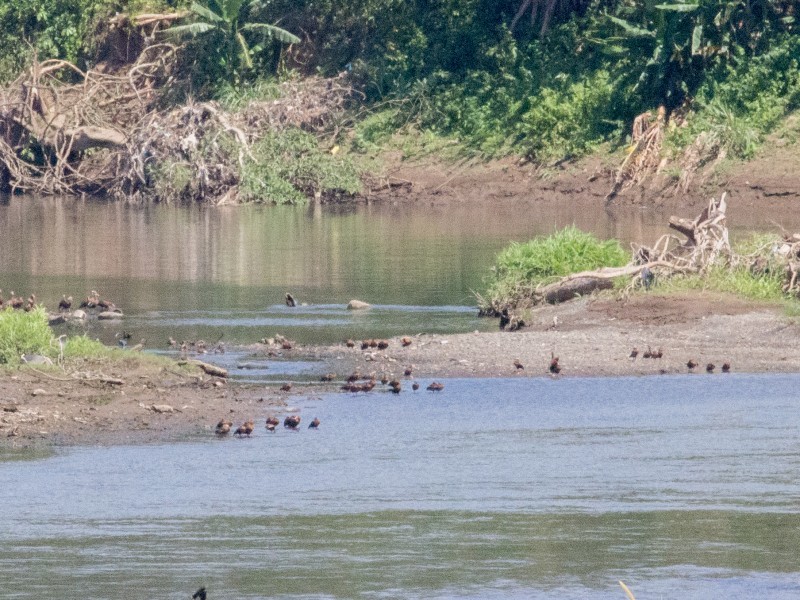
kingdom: Animalia
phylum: Chordata
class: Aves
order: Anseriformes
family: Anatidae
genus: Dendrocygna
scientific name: Dendrocygna autumnalis
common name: Black-bellied whistling duck
